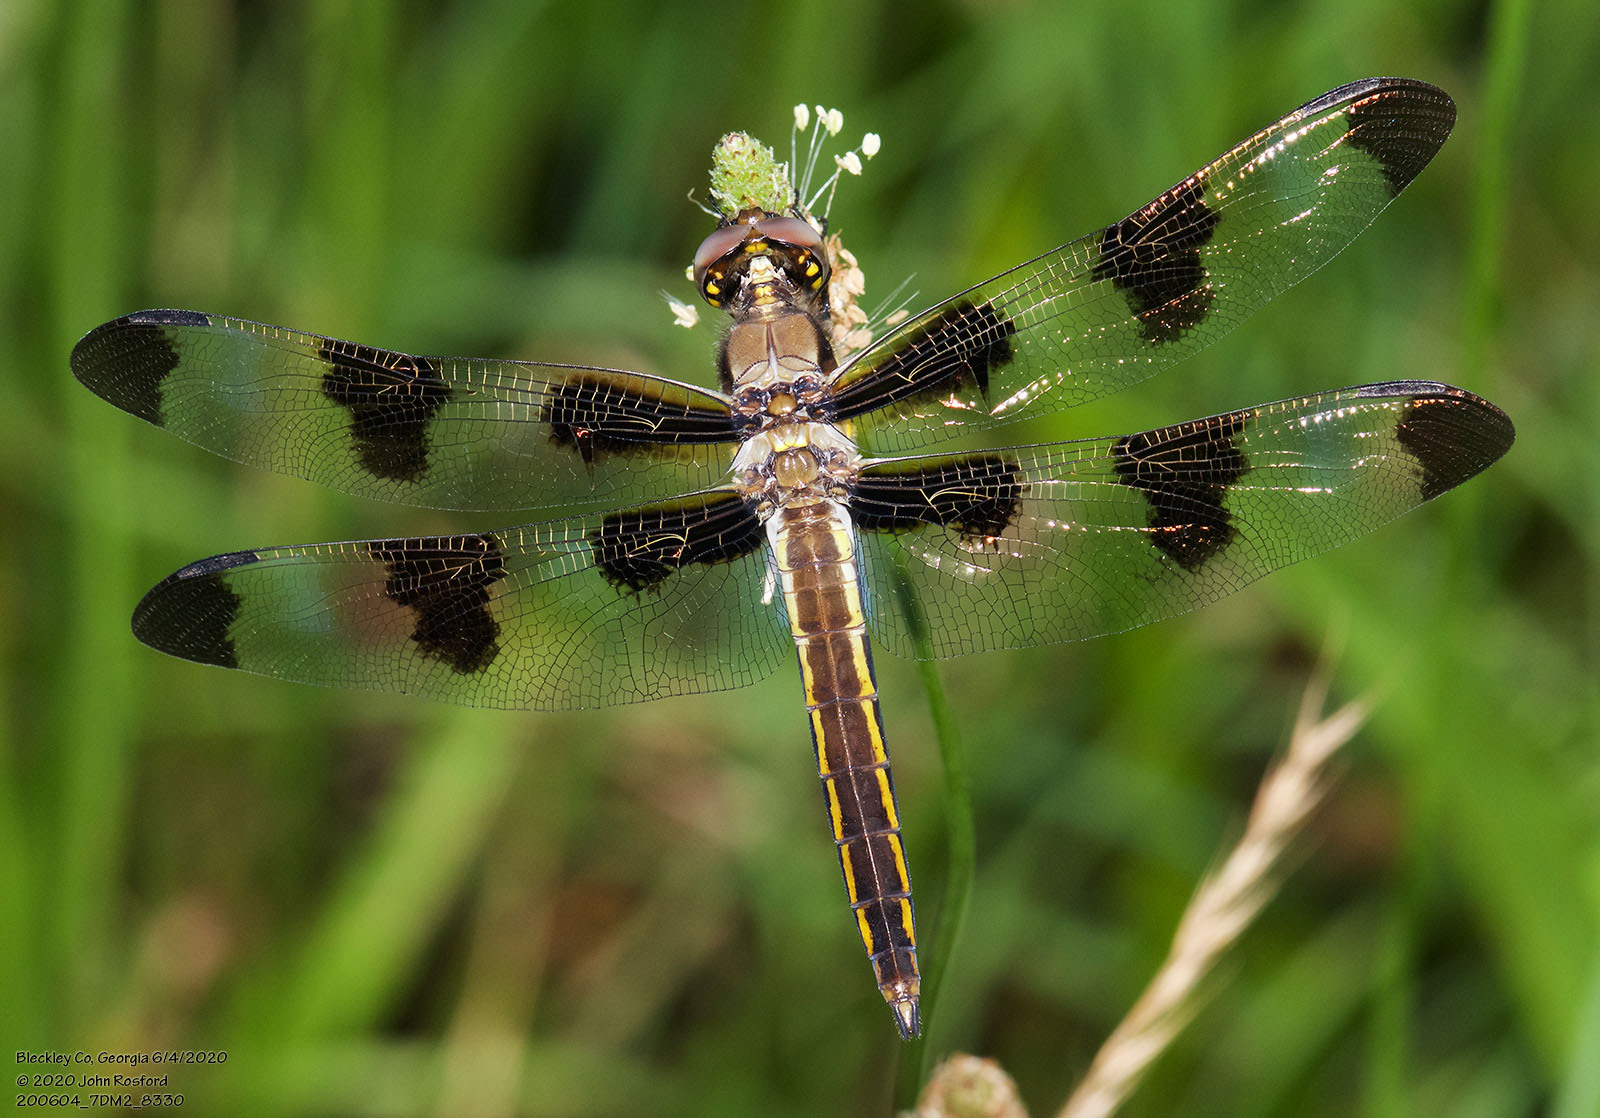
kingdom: Animalia
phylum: Arthropoda
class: Insecta
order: Odonata
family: Libellulidae
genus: Libellula
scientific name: Libellula pulchella
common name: Twelve-spotted skimmer
